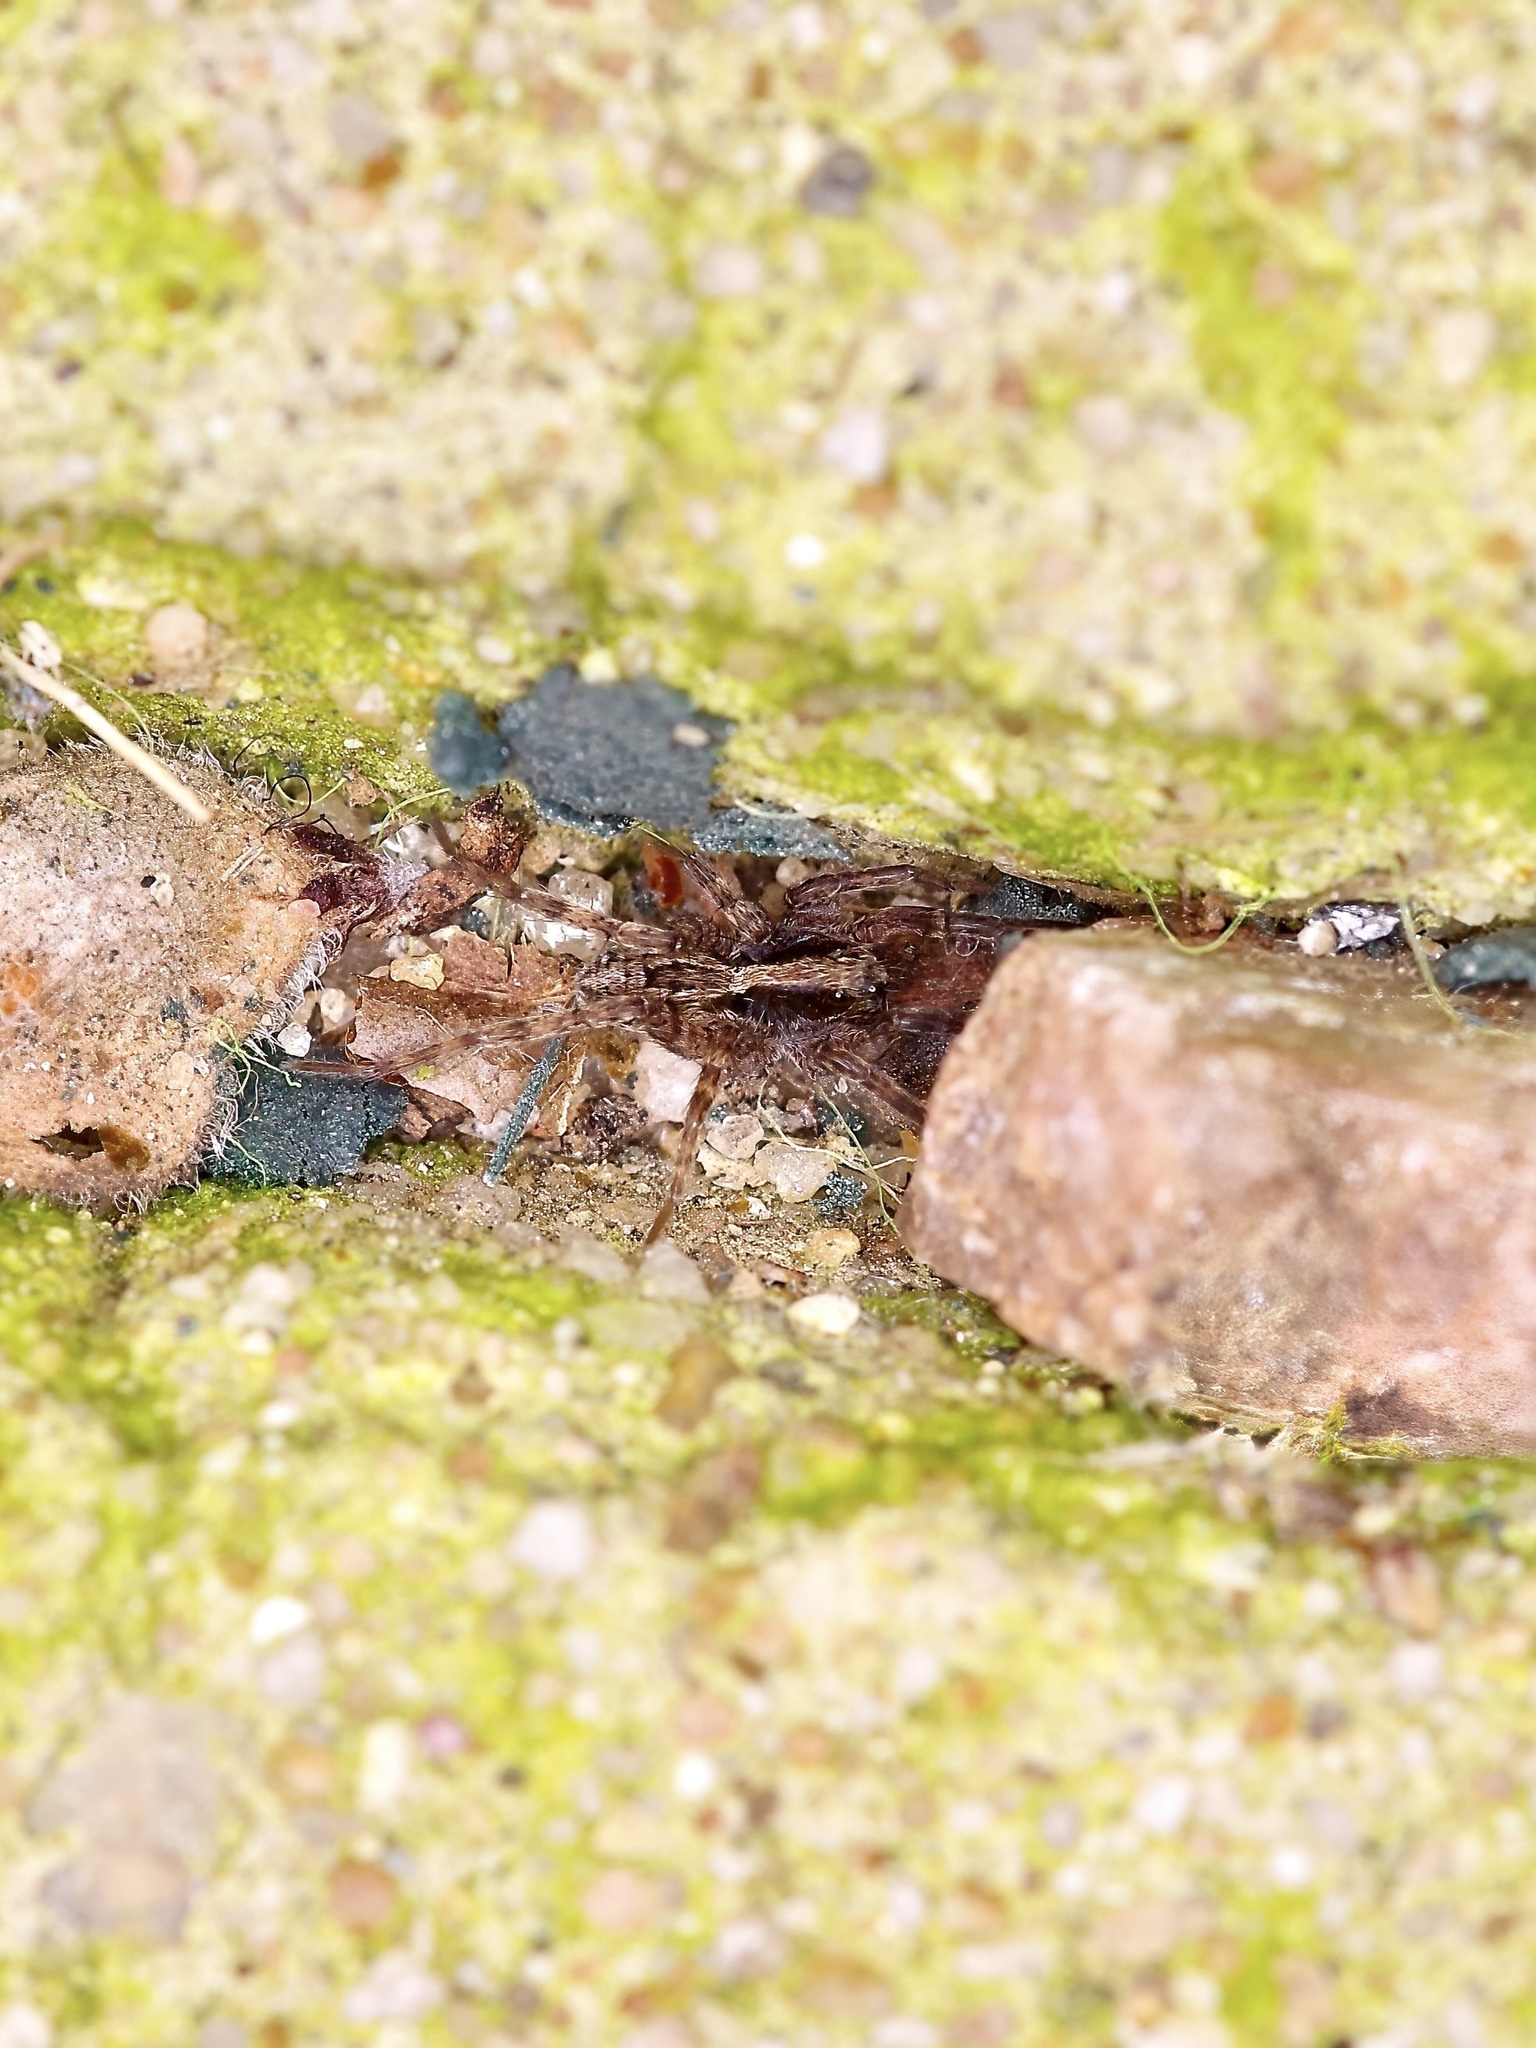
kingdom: Animalia
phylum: Arthropoda
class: Arachnida
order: Araneae
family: Lycosidae
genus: Schizocosa
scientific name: Schizocosa avida
